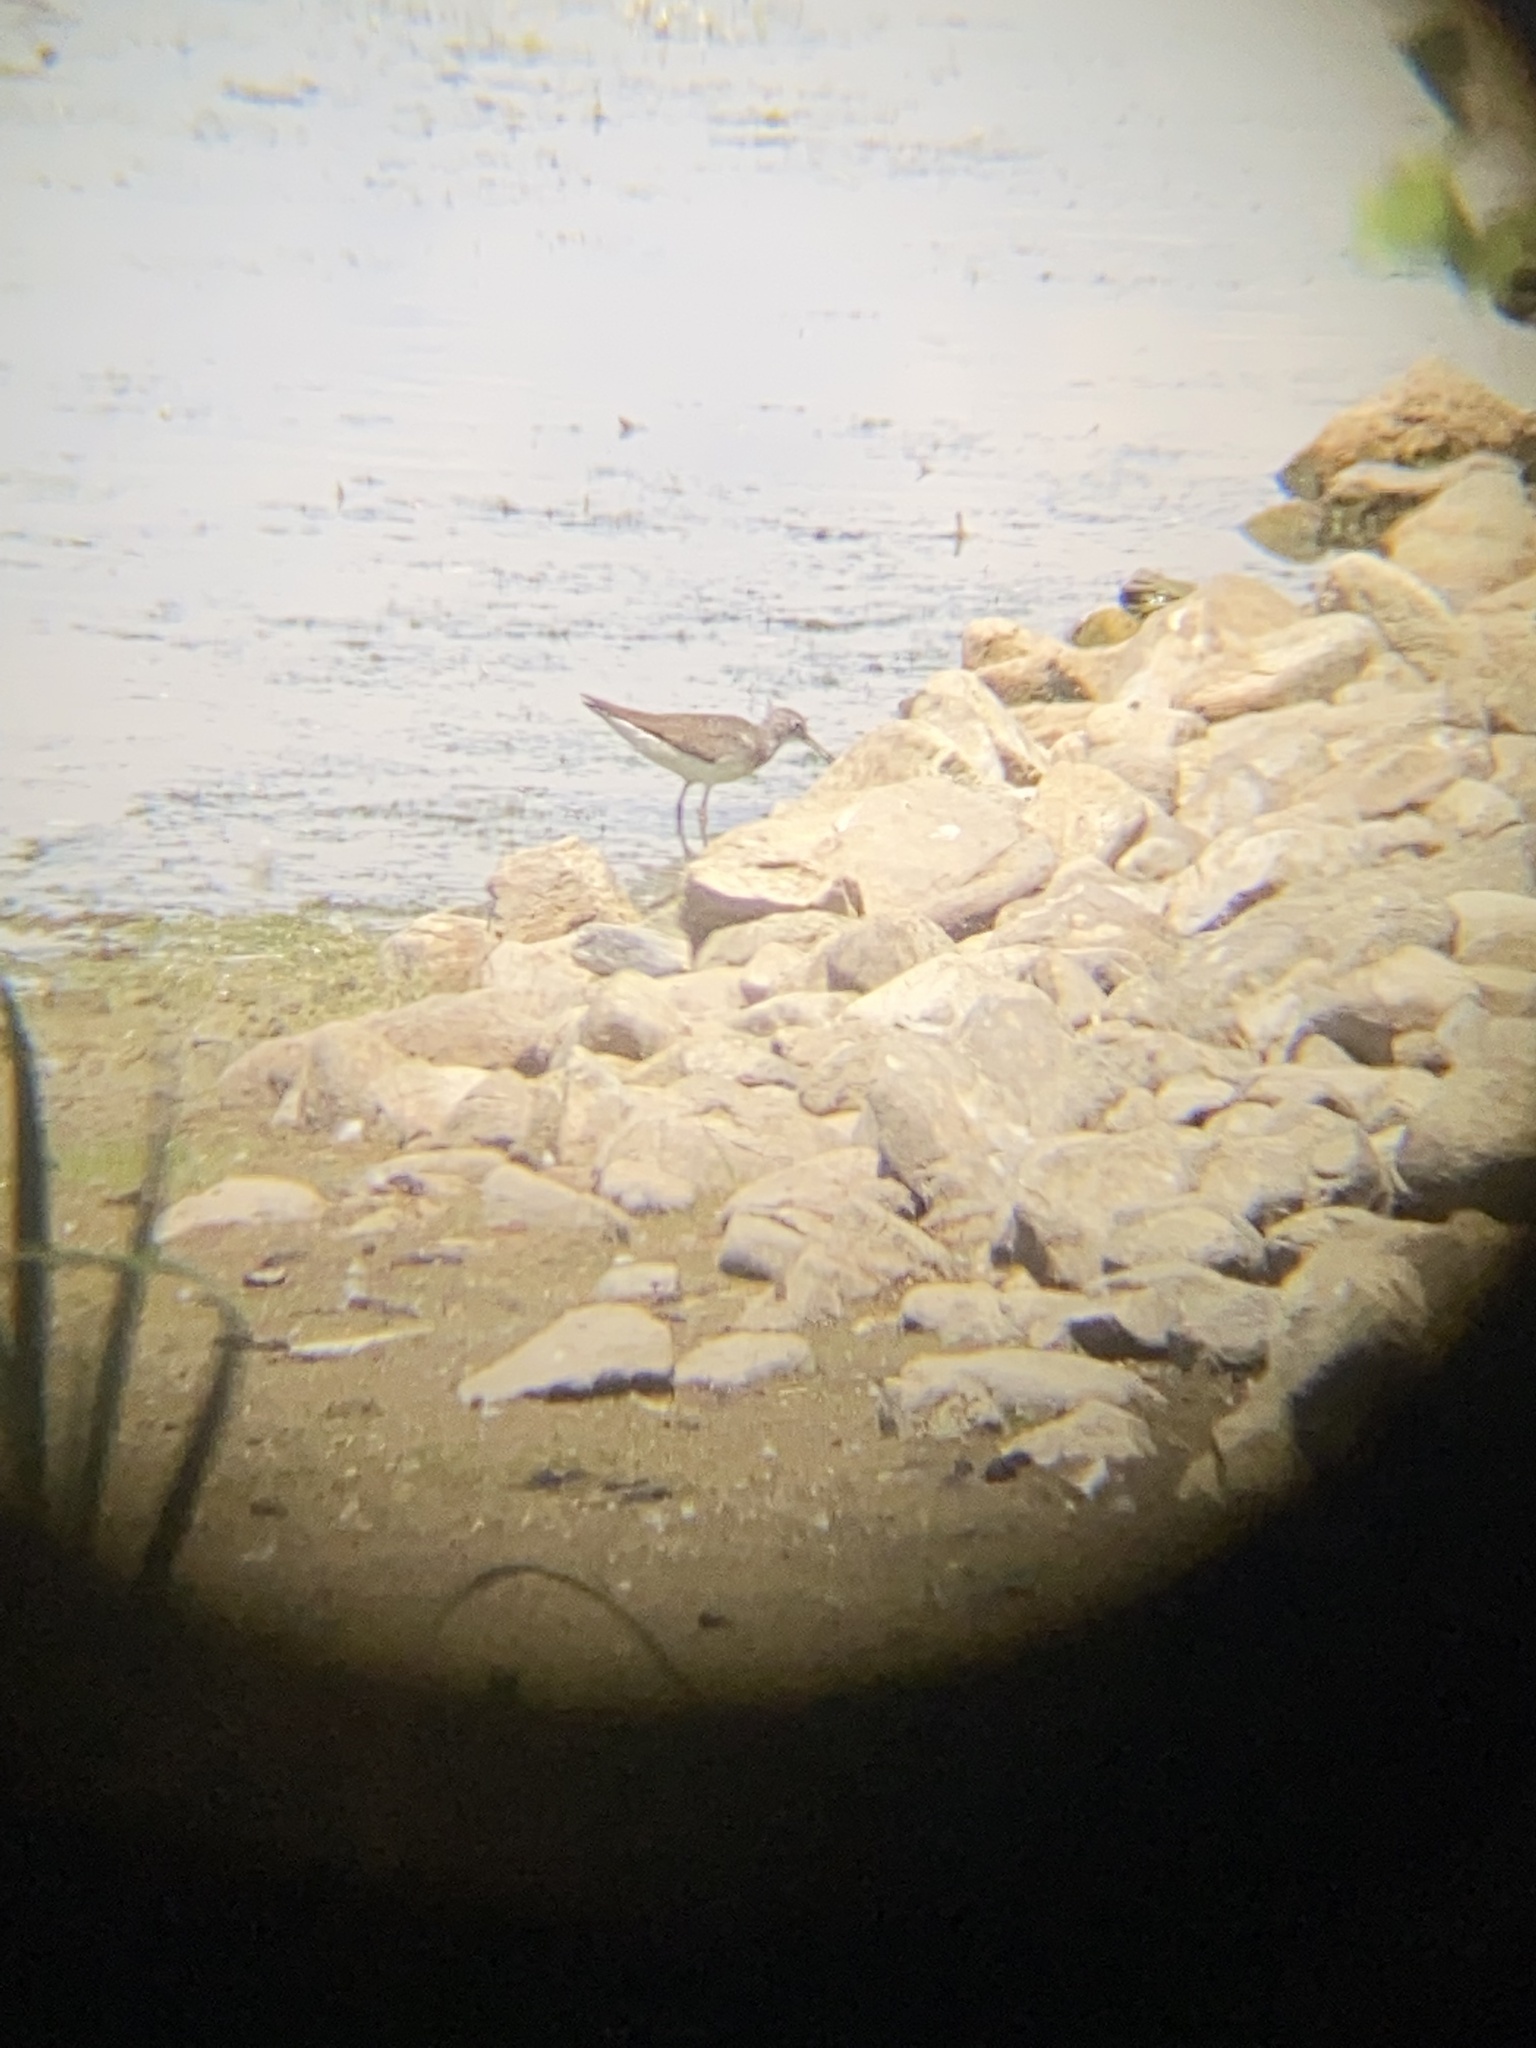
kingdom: Animalia
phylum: Chordata
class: Aves
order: Charadriiformes
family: Scolopacidae
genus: Tringa
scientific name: Tringa solitaria
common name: Solitary sandpiper
